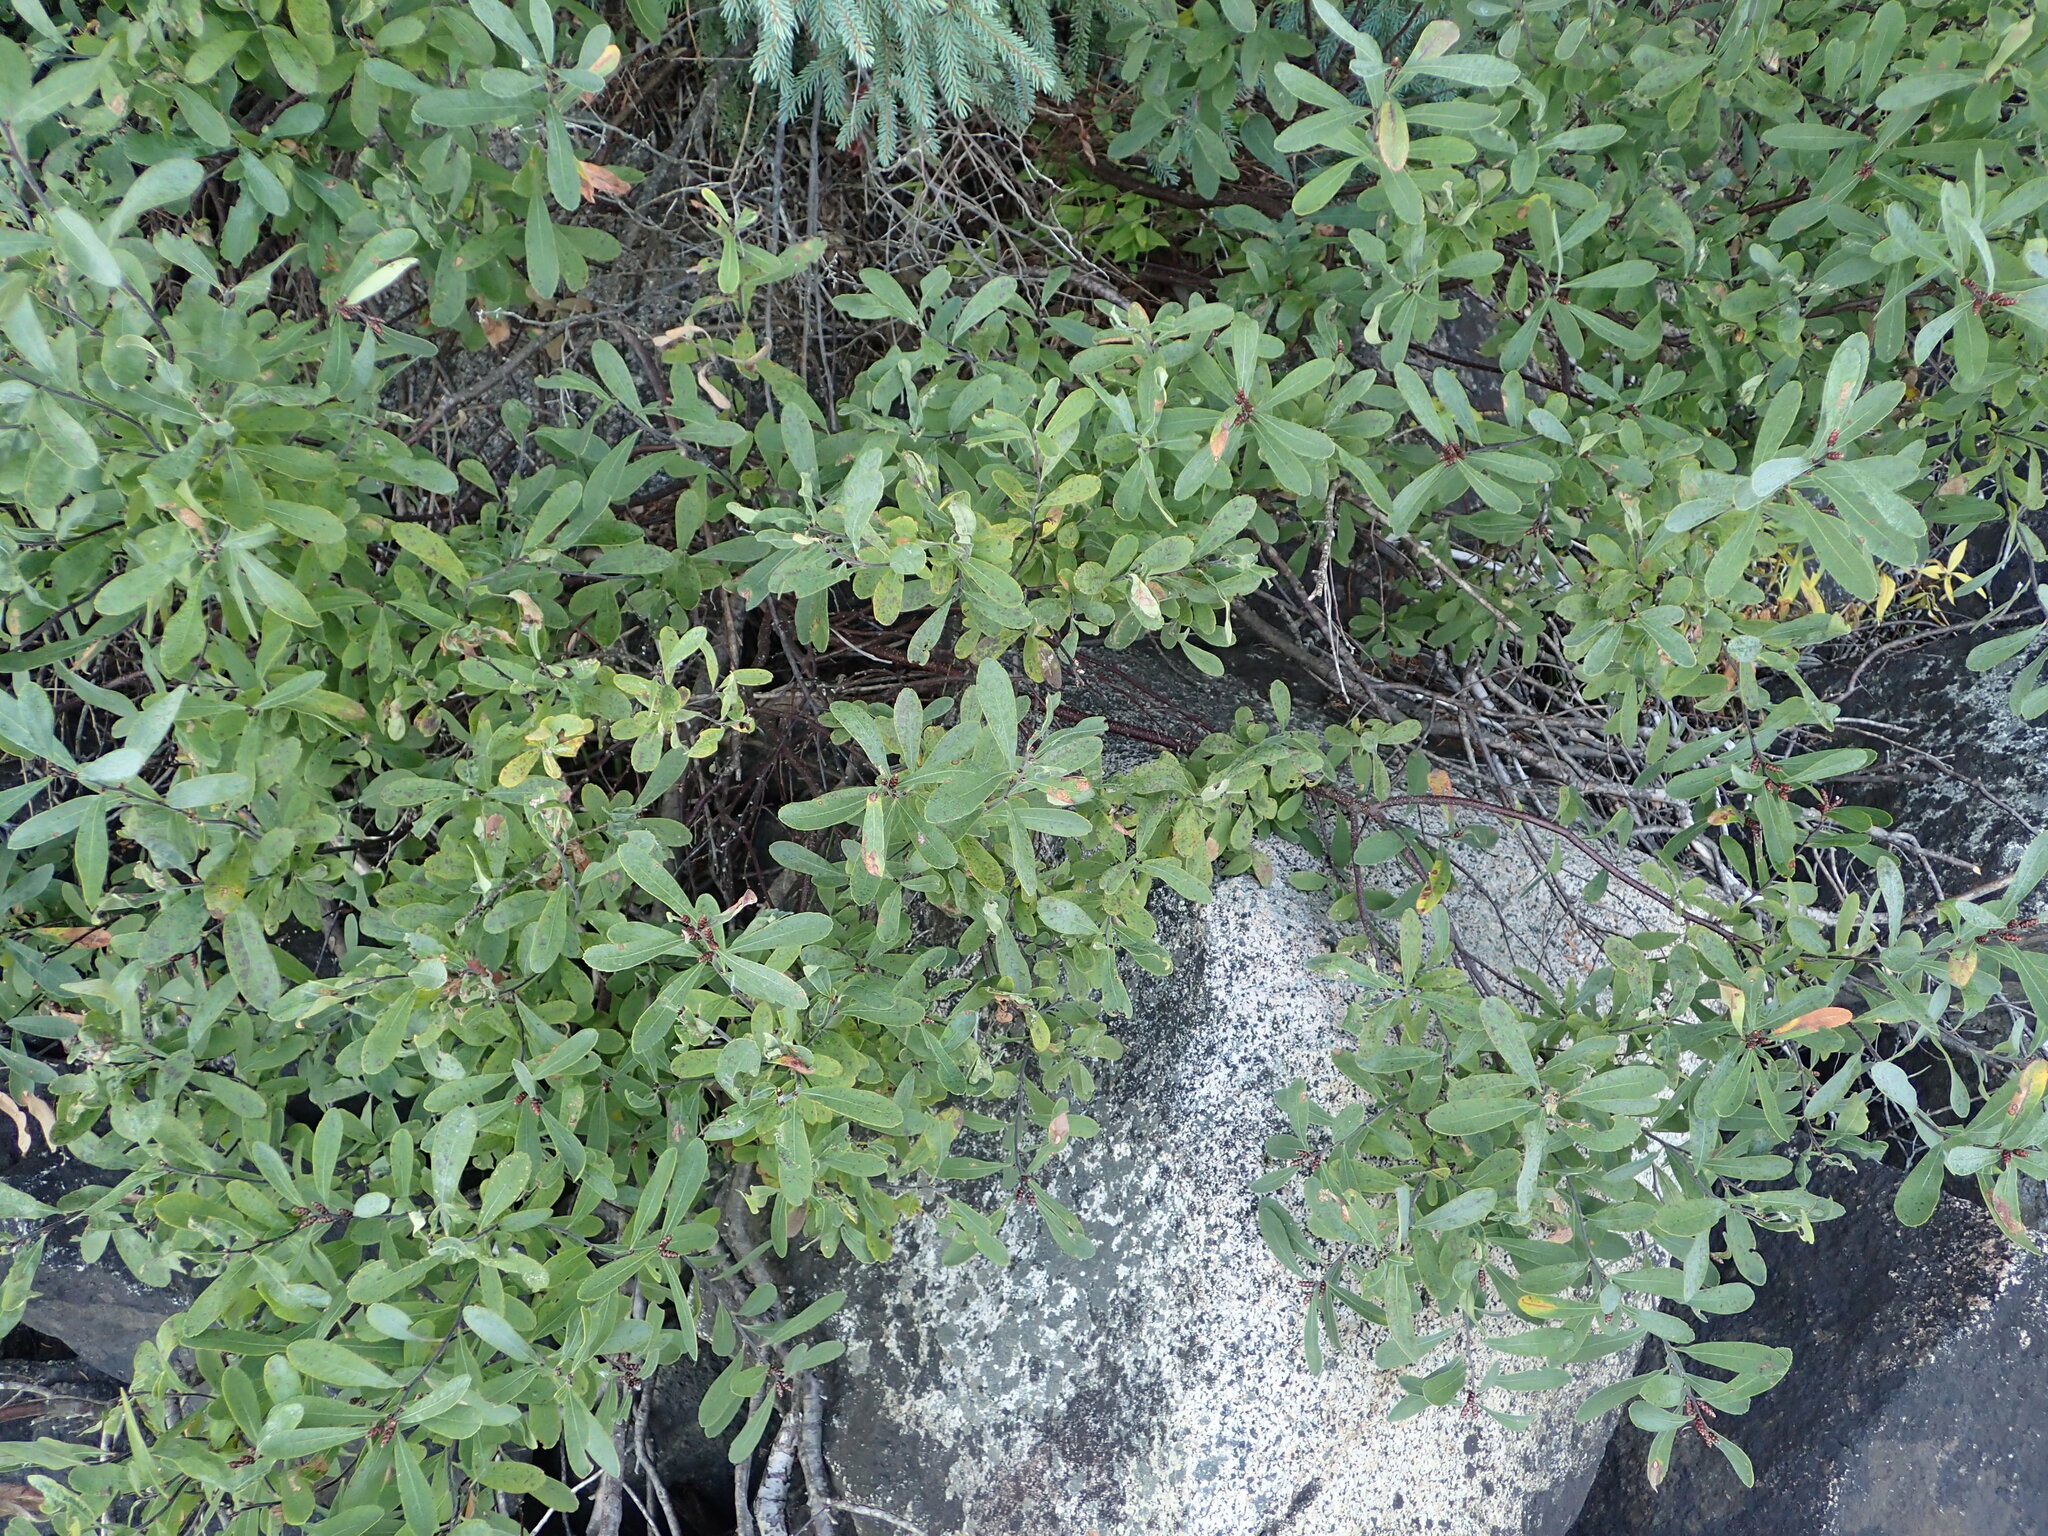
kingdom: Plantae
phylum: Tracheophyta
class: Magnoliopsida
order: Fagales
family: Myricaceae
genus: Myrica
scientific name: Myrica gale
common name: Sweet gale
